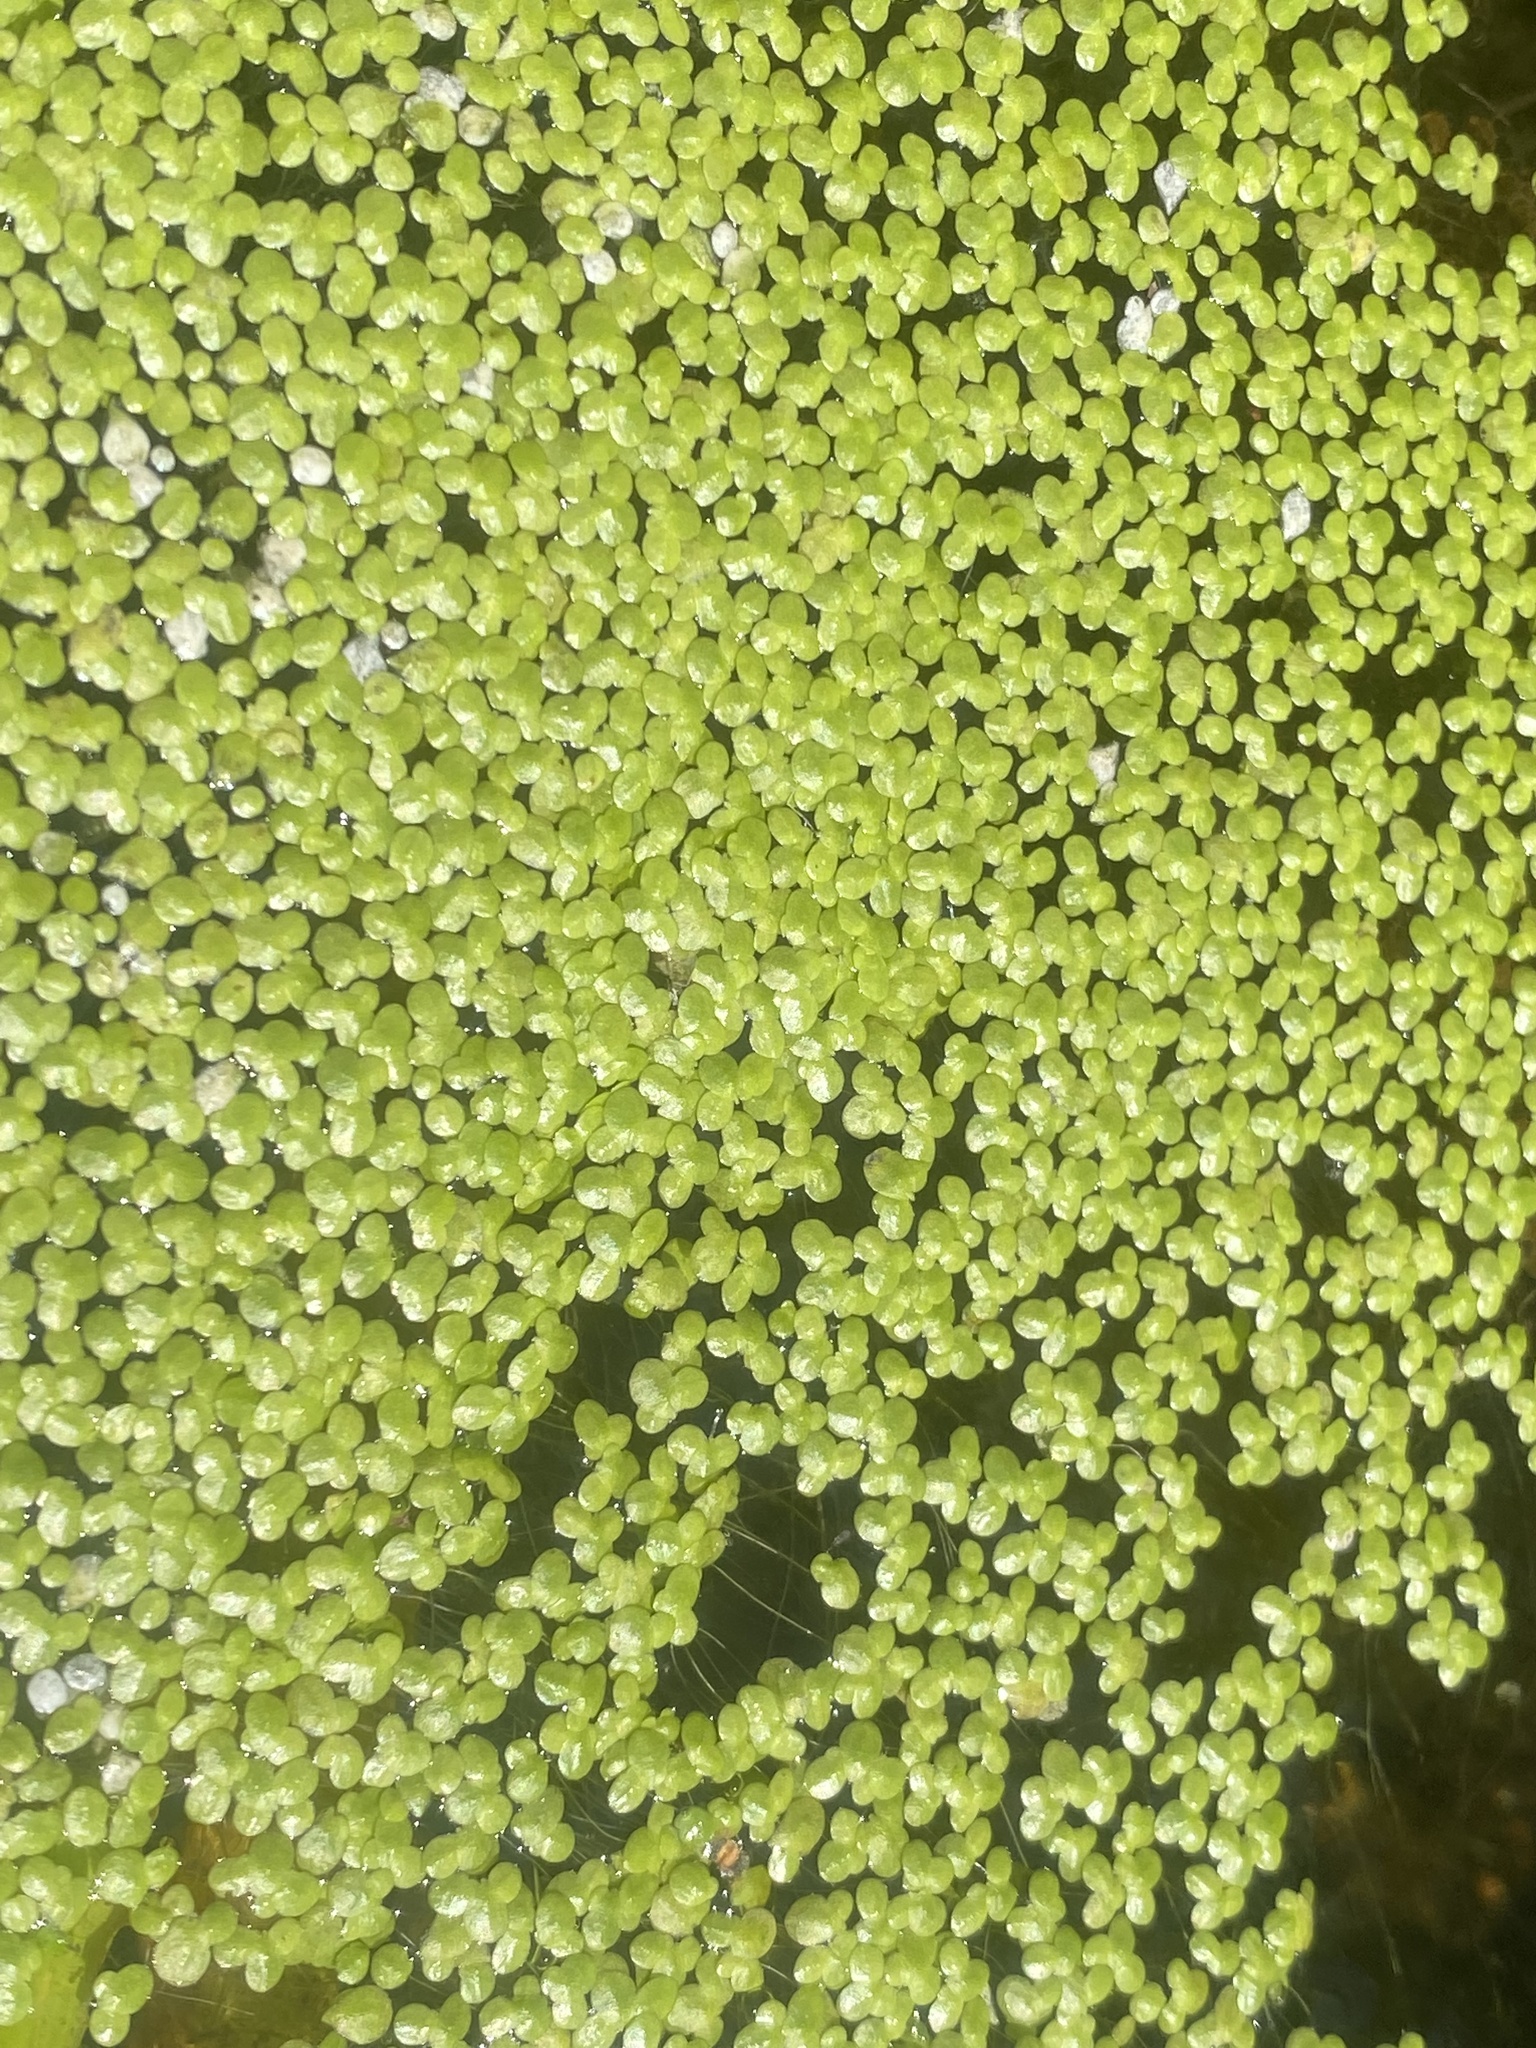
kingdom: Plantae
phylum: Tracheophyta
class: Liliopsida
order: Alismatales
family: Araceae
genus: Lemna
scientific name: Lemna minor
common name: Common duckweed
